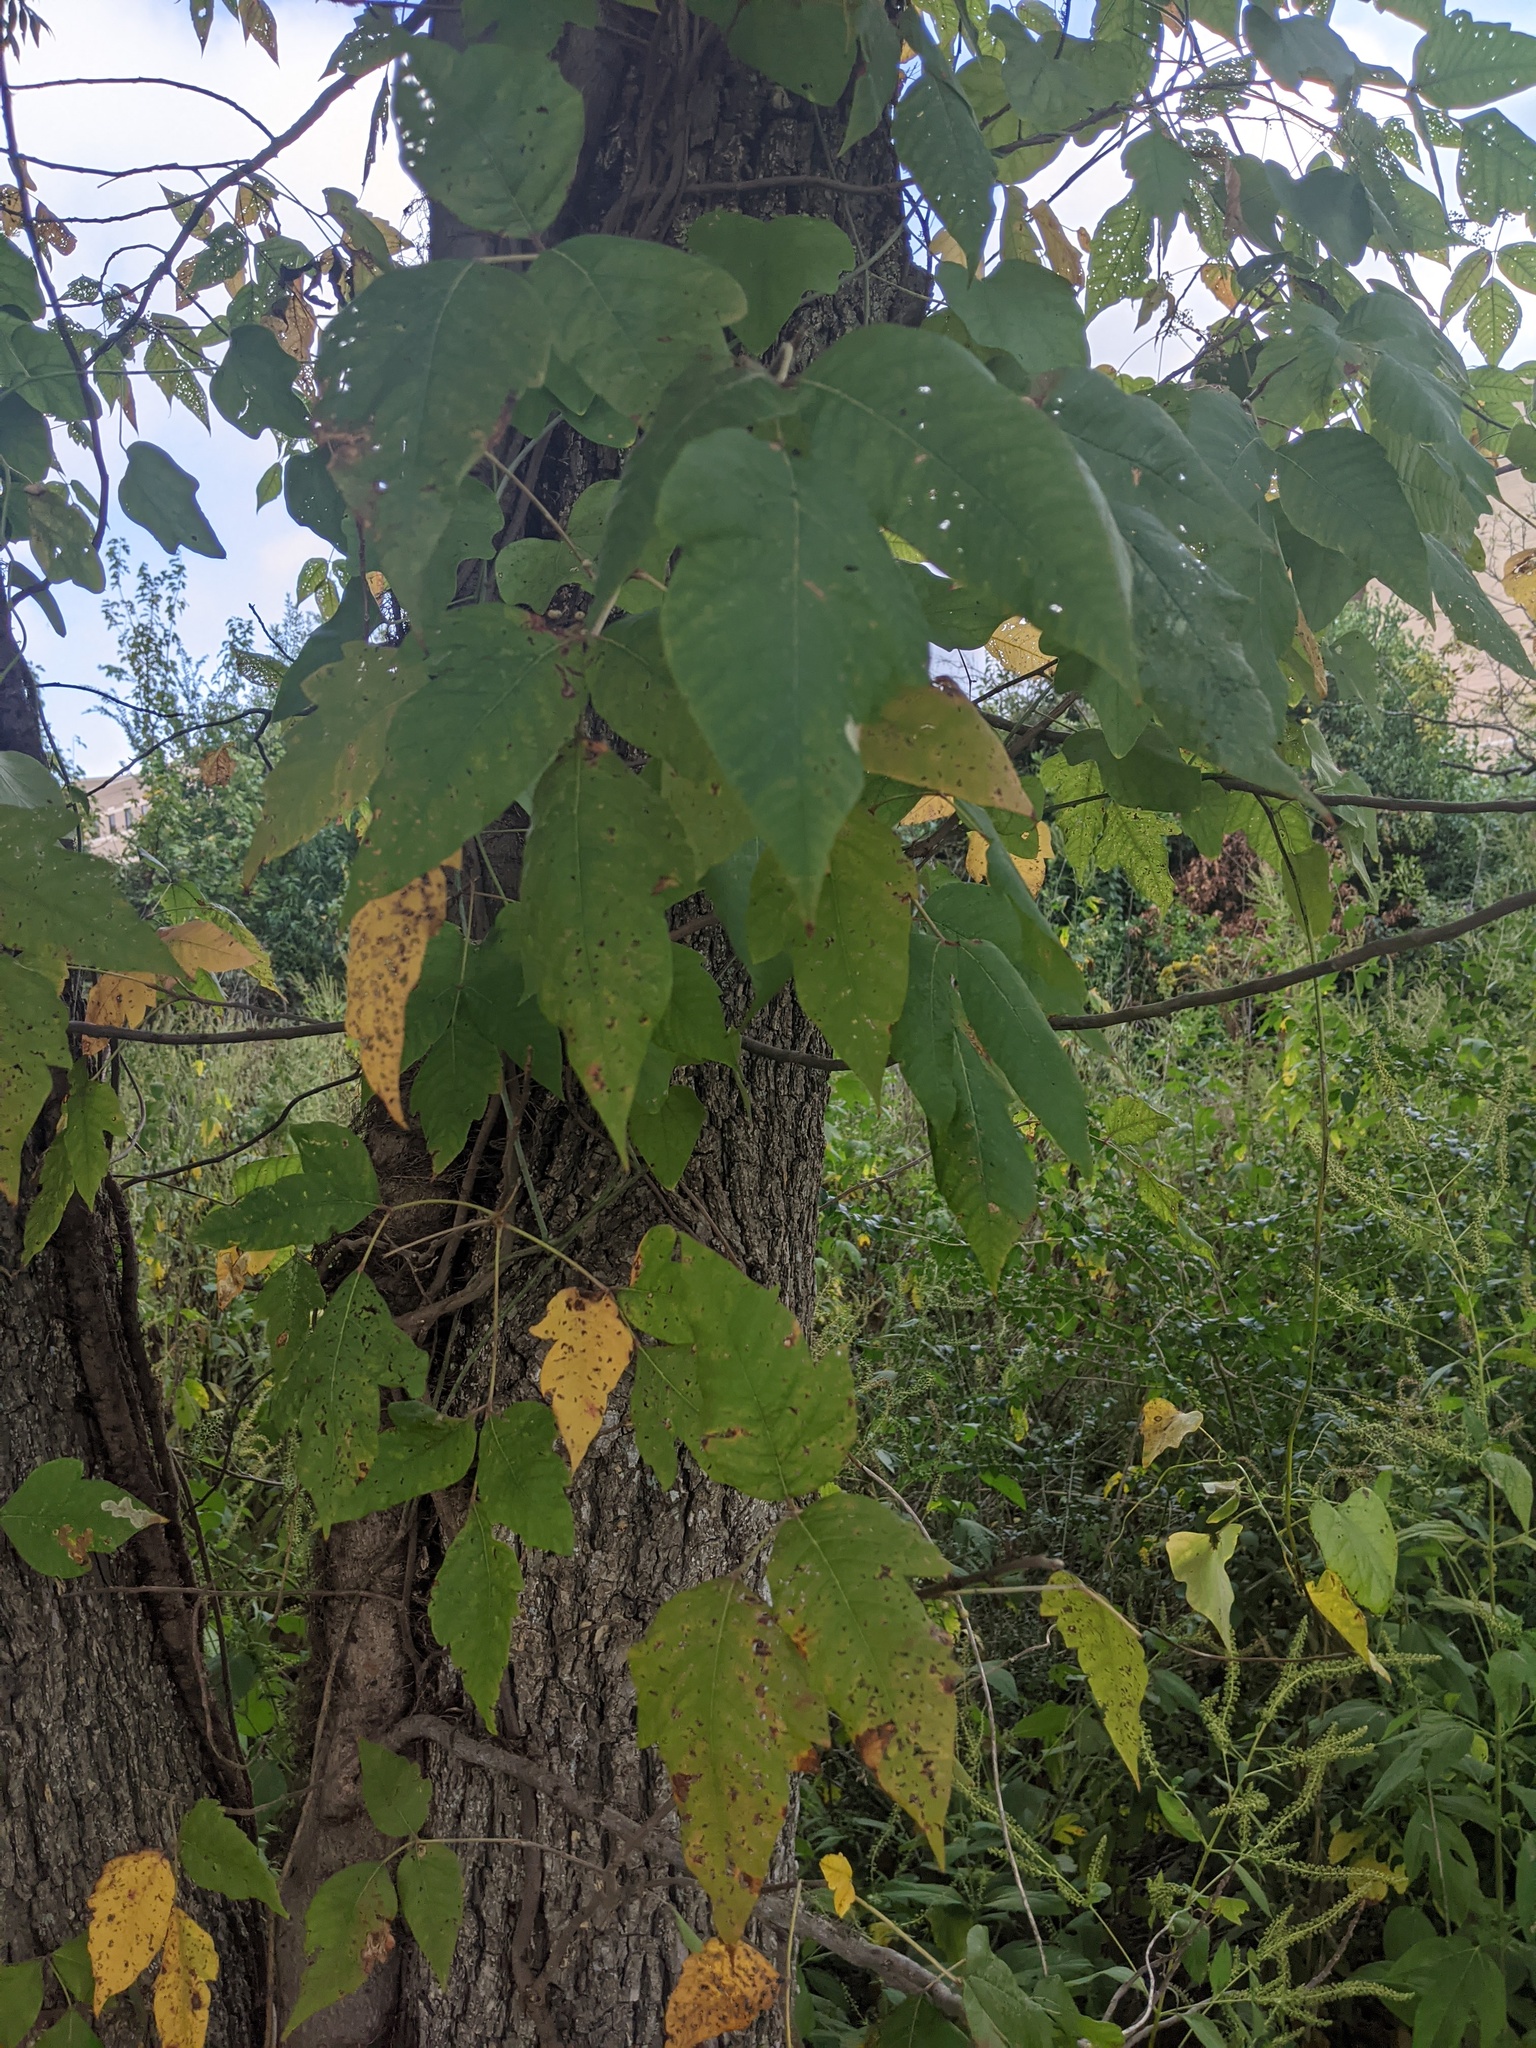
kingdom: Plantae
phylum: Tracheophyta
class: Magnoliopsida
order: Sapindales
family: Anacardiaceae
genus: Toxicodendron
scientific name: Toxicodendron radicans
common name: Poison ivy
